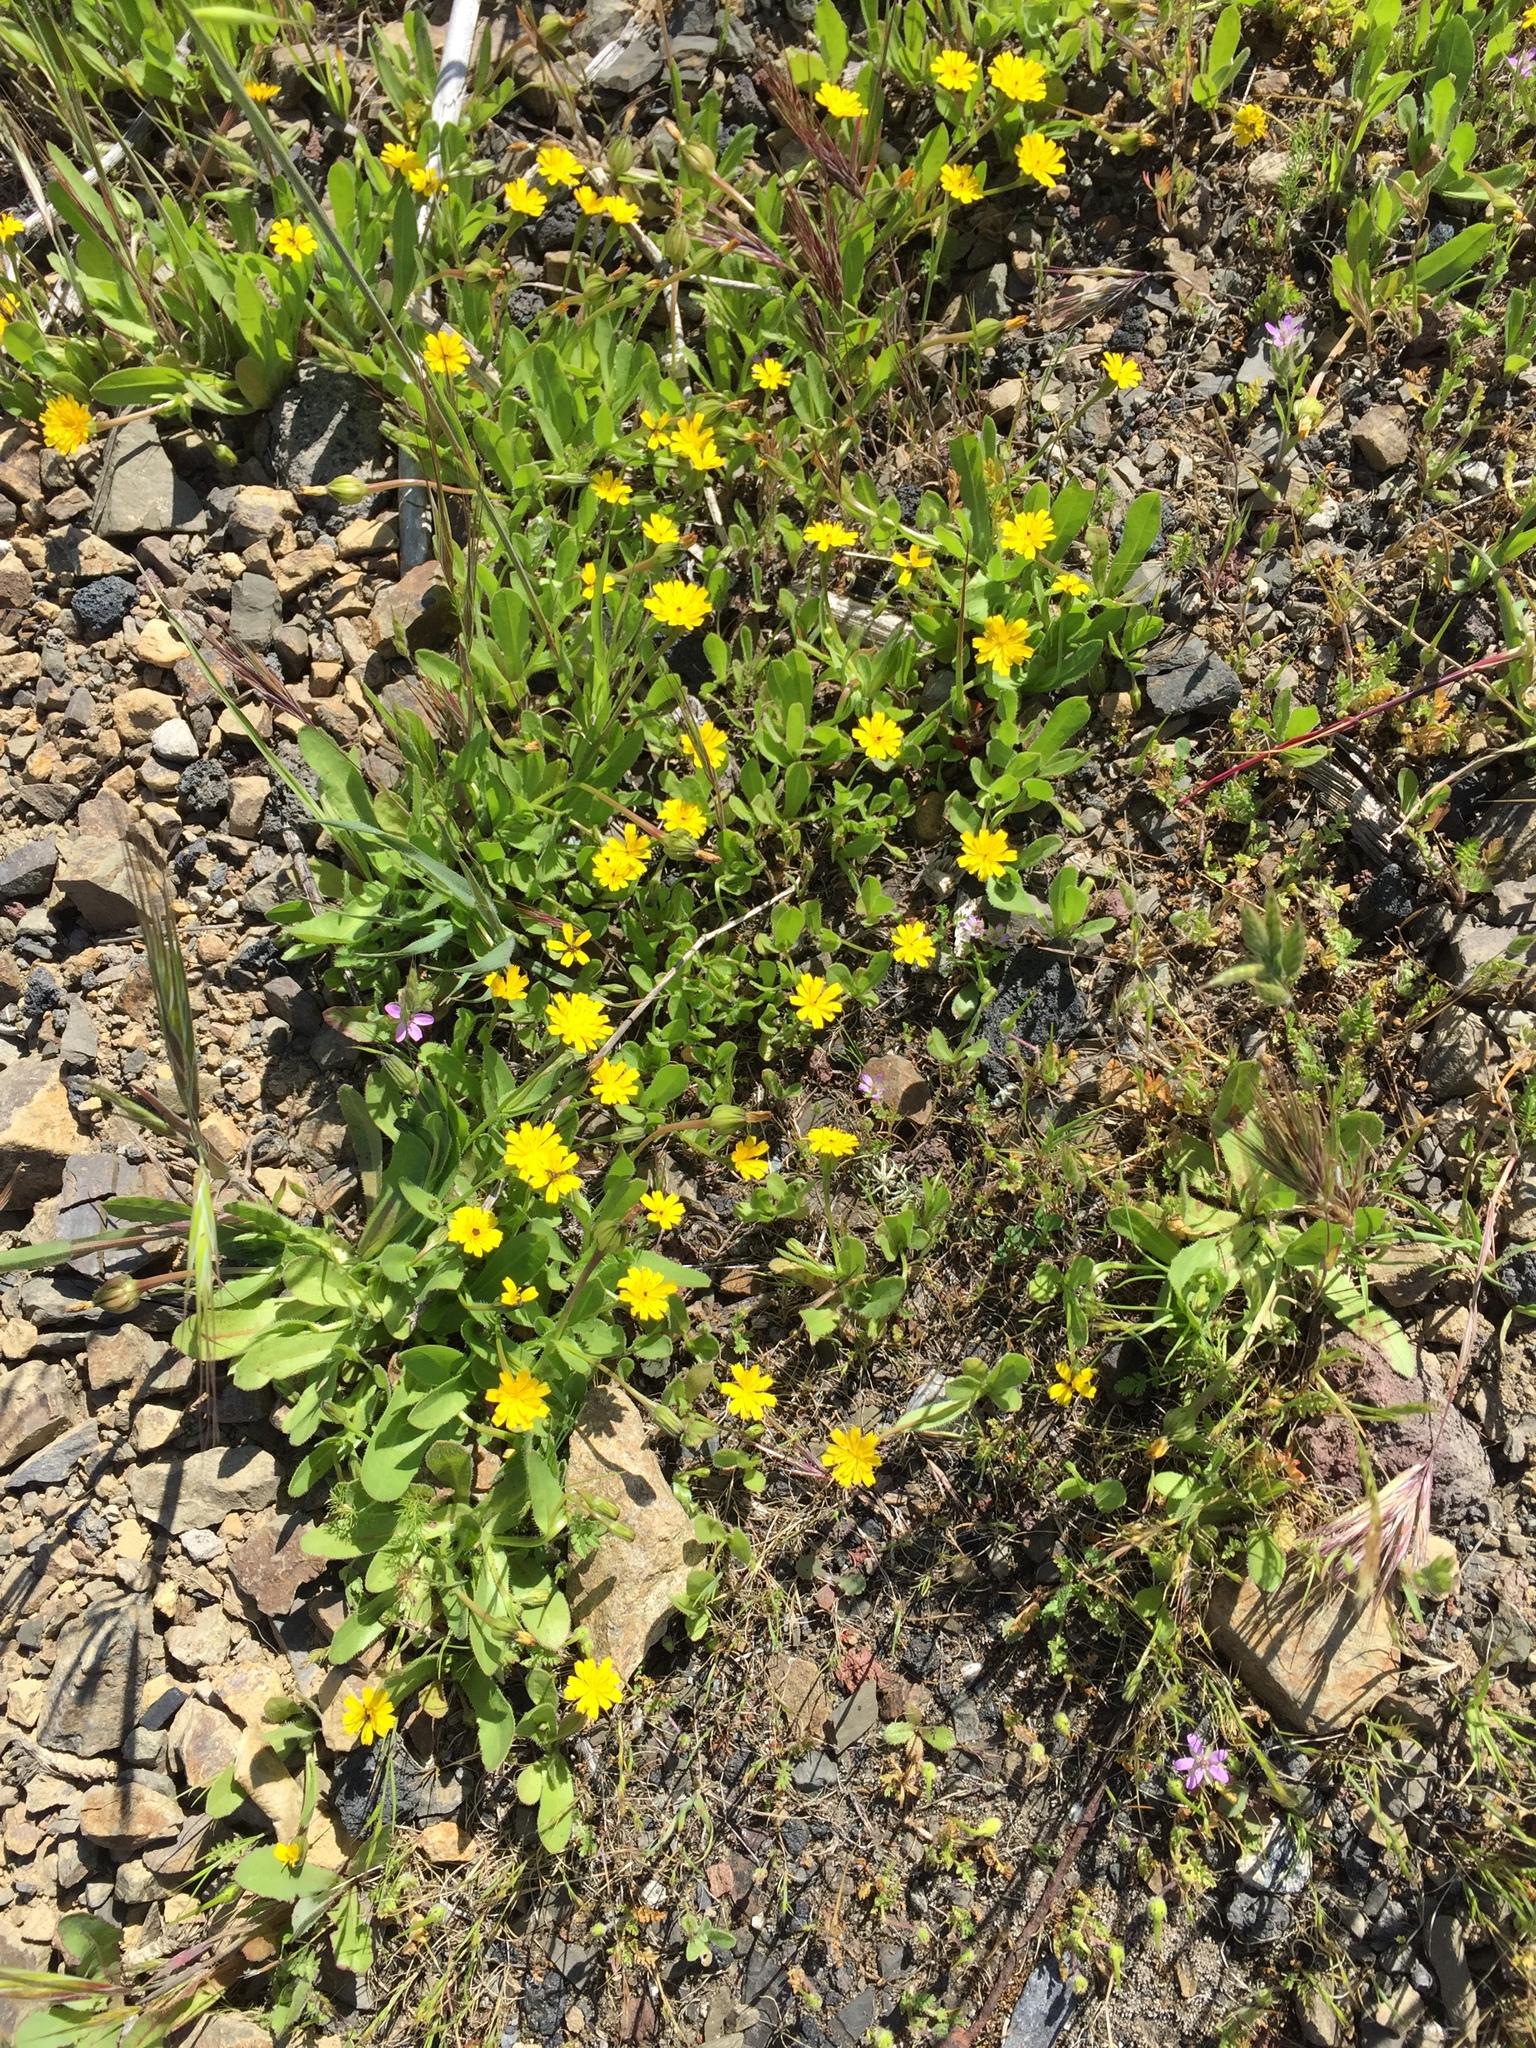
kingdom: Plantae
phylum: Tracheophyta
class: Magnoliopsida
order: Asterales
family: Asteraceae
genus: Hedypnois
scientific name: Hedypnois rhagadioloides
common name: Cretan weed
